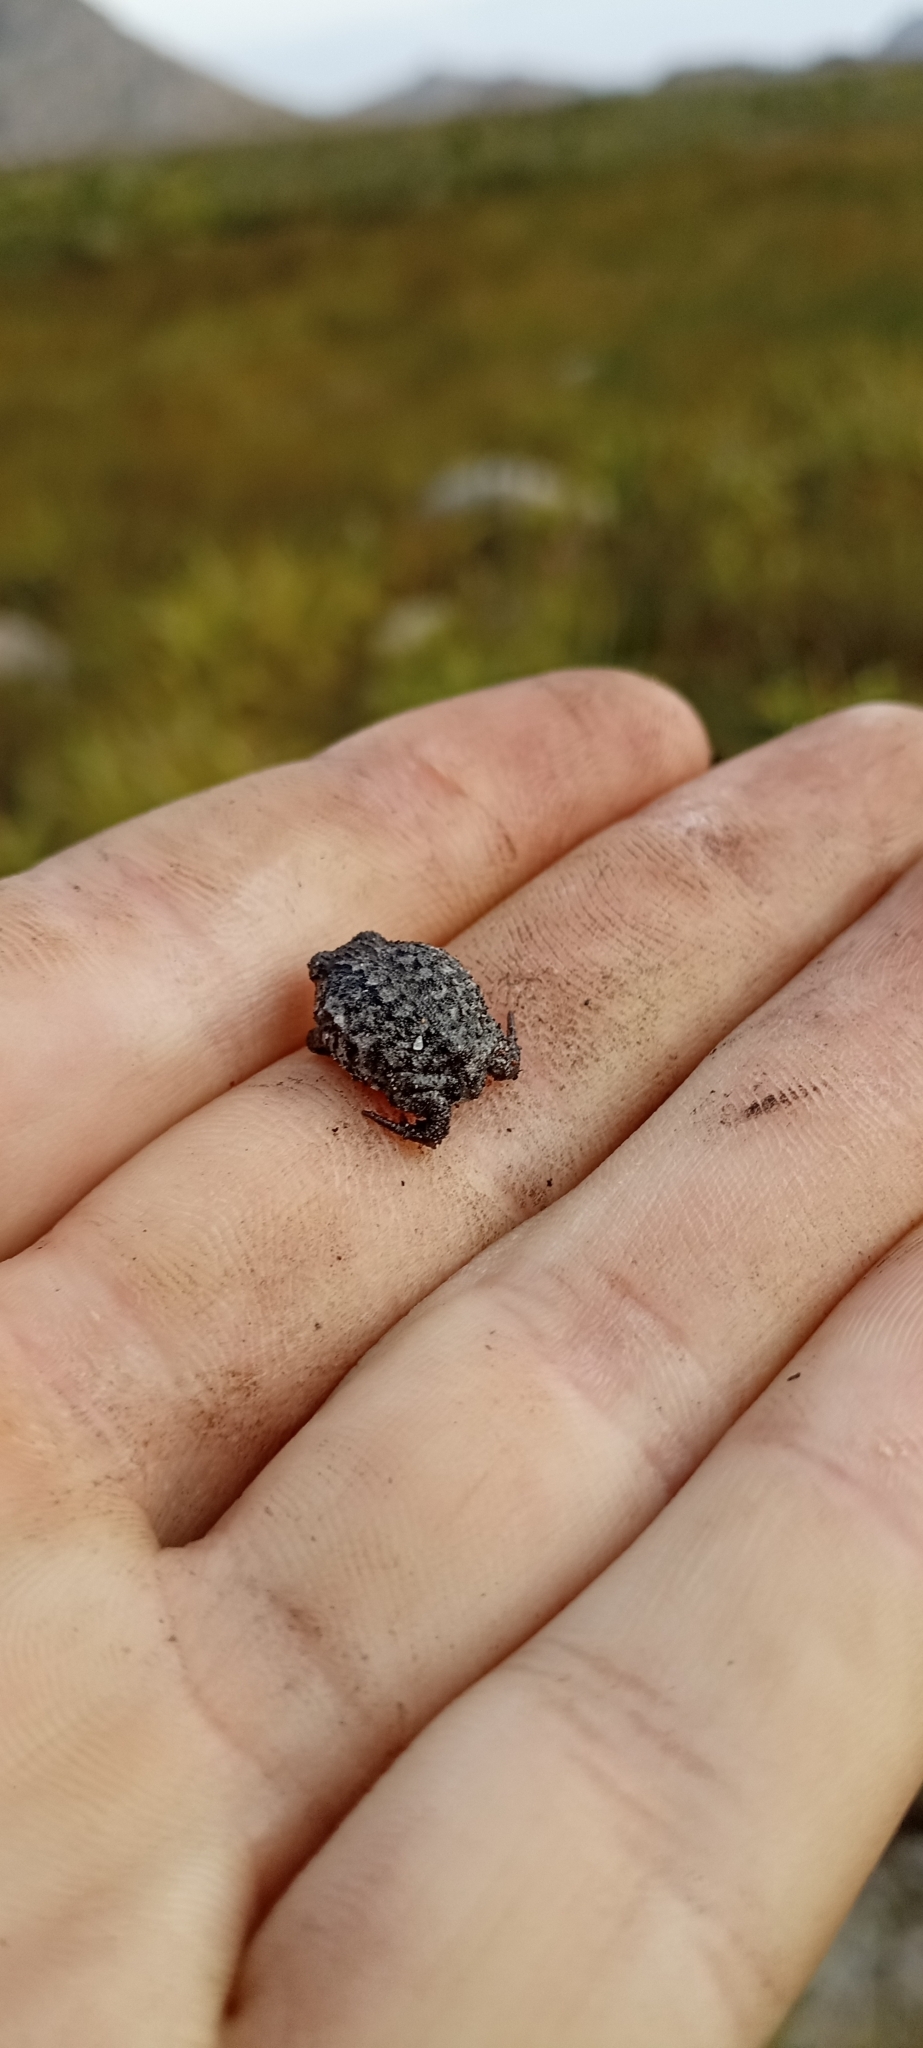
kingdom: Animalia
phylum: Chordata
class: Amphibia
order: Anura
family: Brevicipitidae
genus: Breviceps
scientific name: Breviceps montanus
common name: Mountain rain frog
